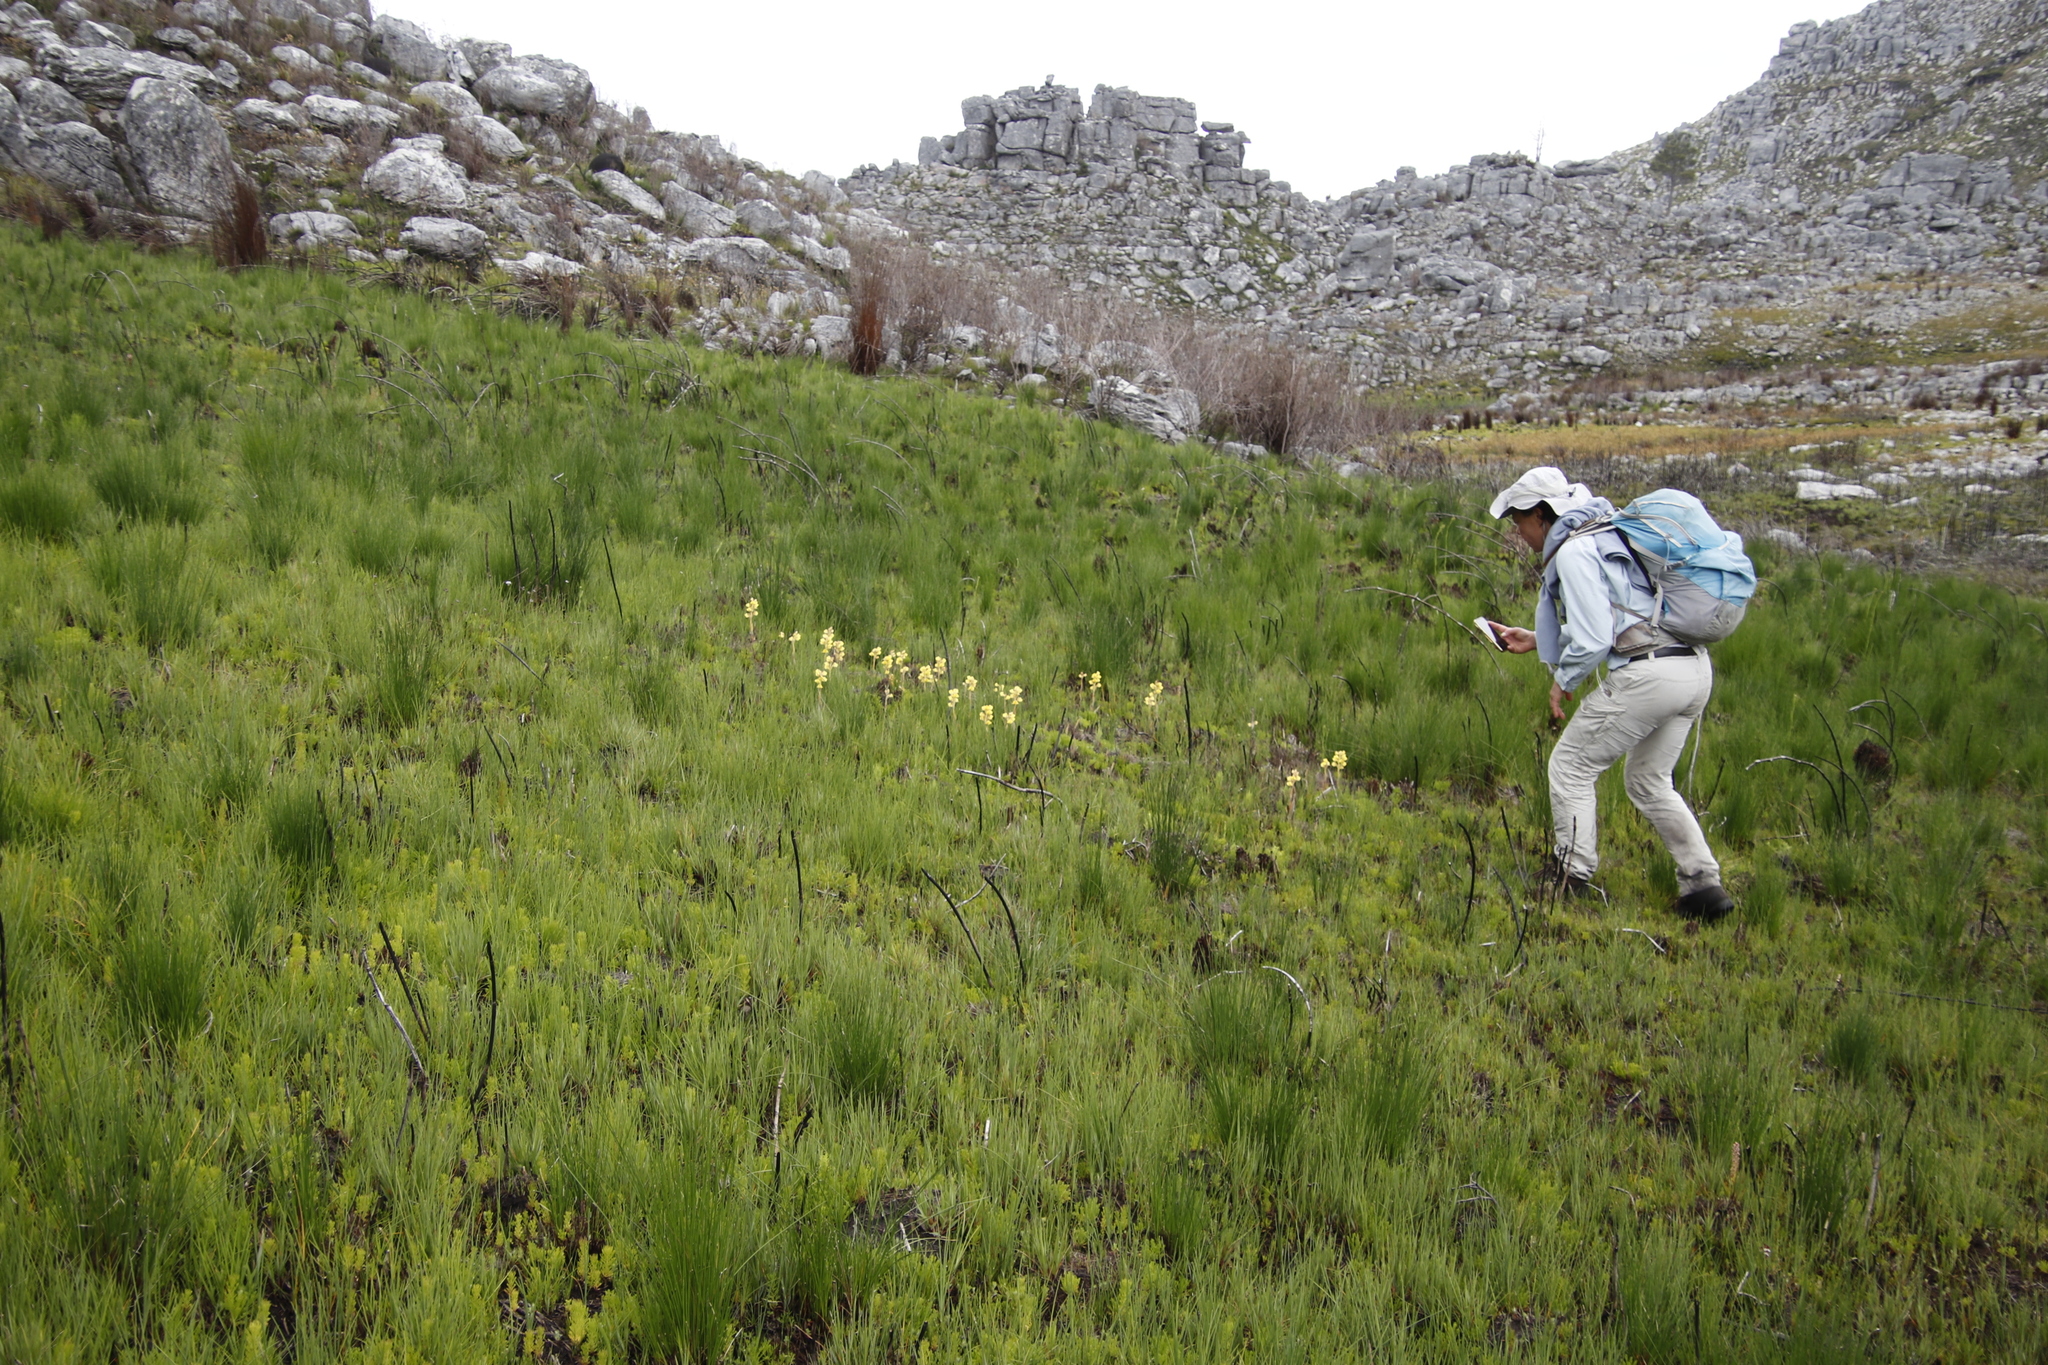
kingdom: Plantae
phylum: Tracheophyta
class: Liliopsida
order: Asparagales
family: Orchidaceae
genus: Pterygodium
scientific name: Pterygodium acutifolium
